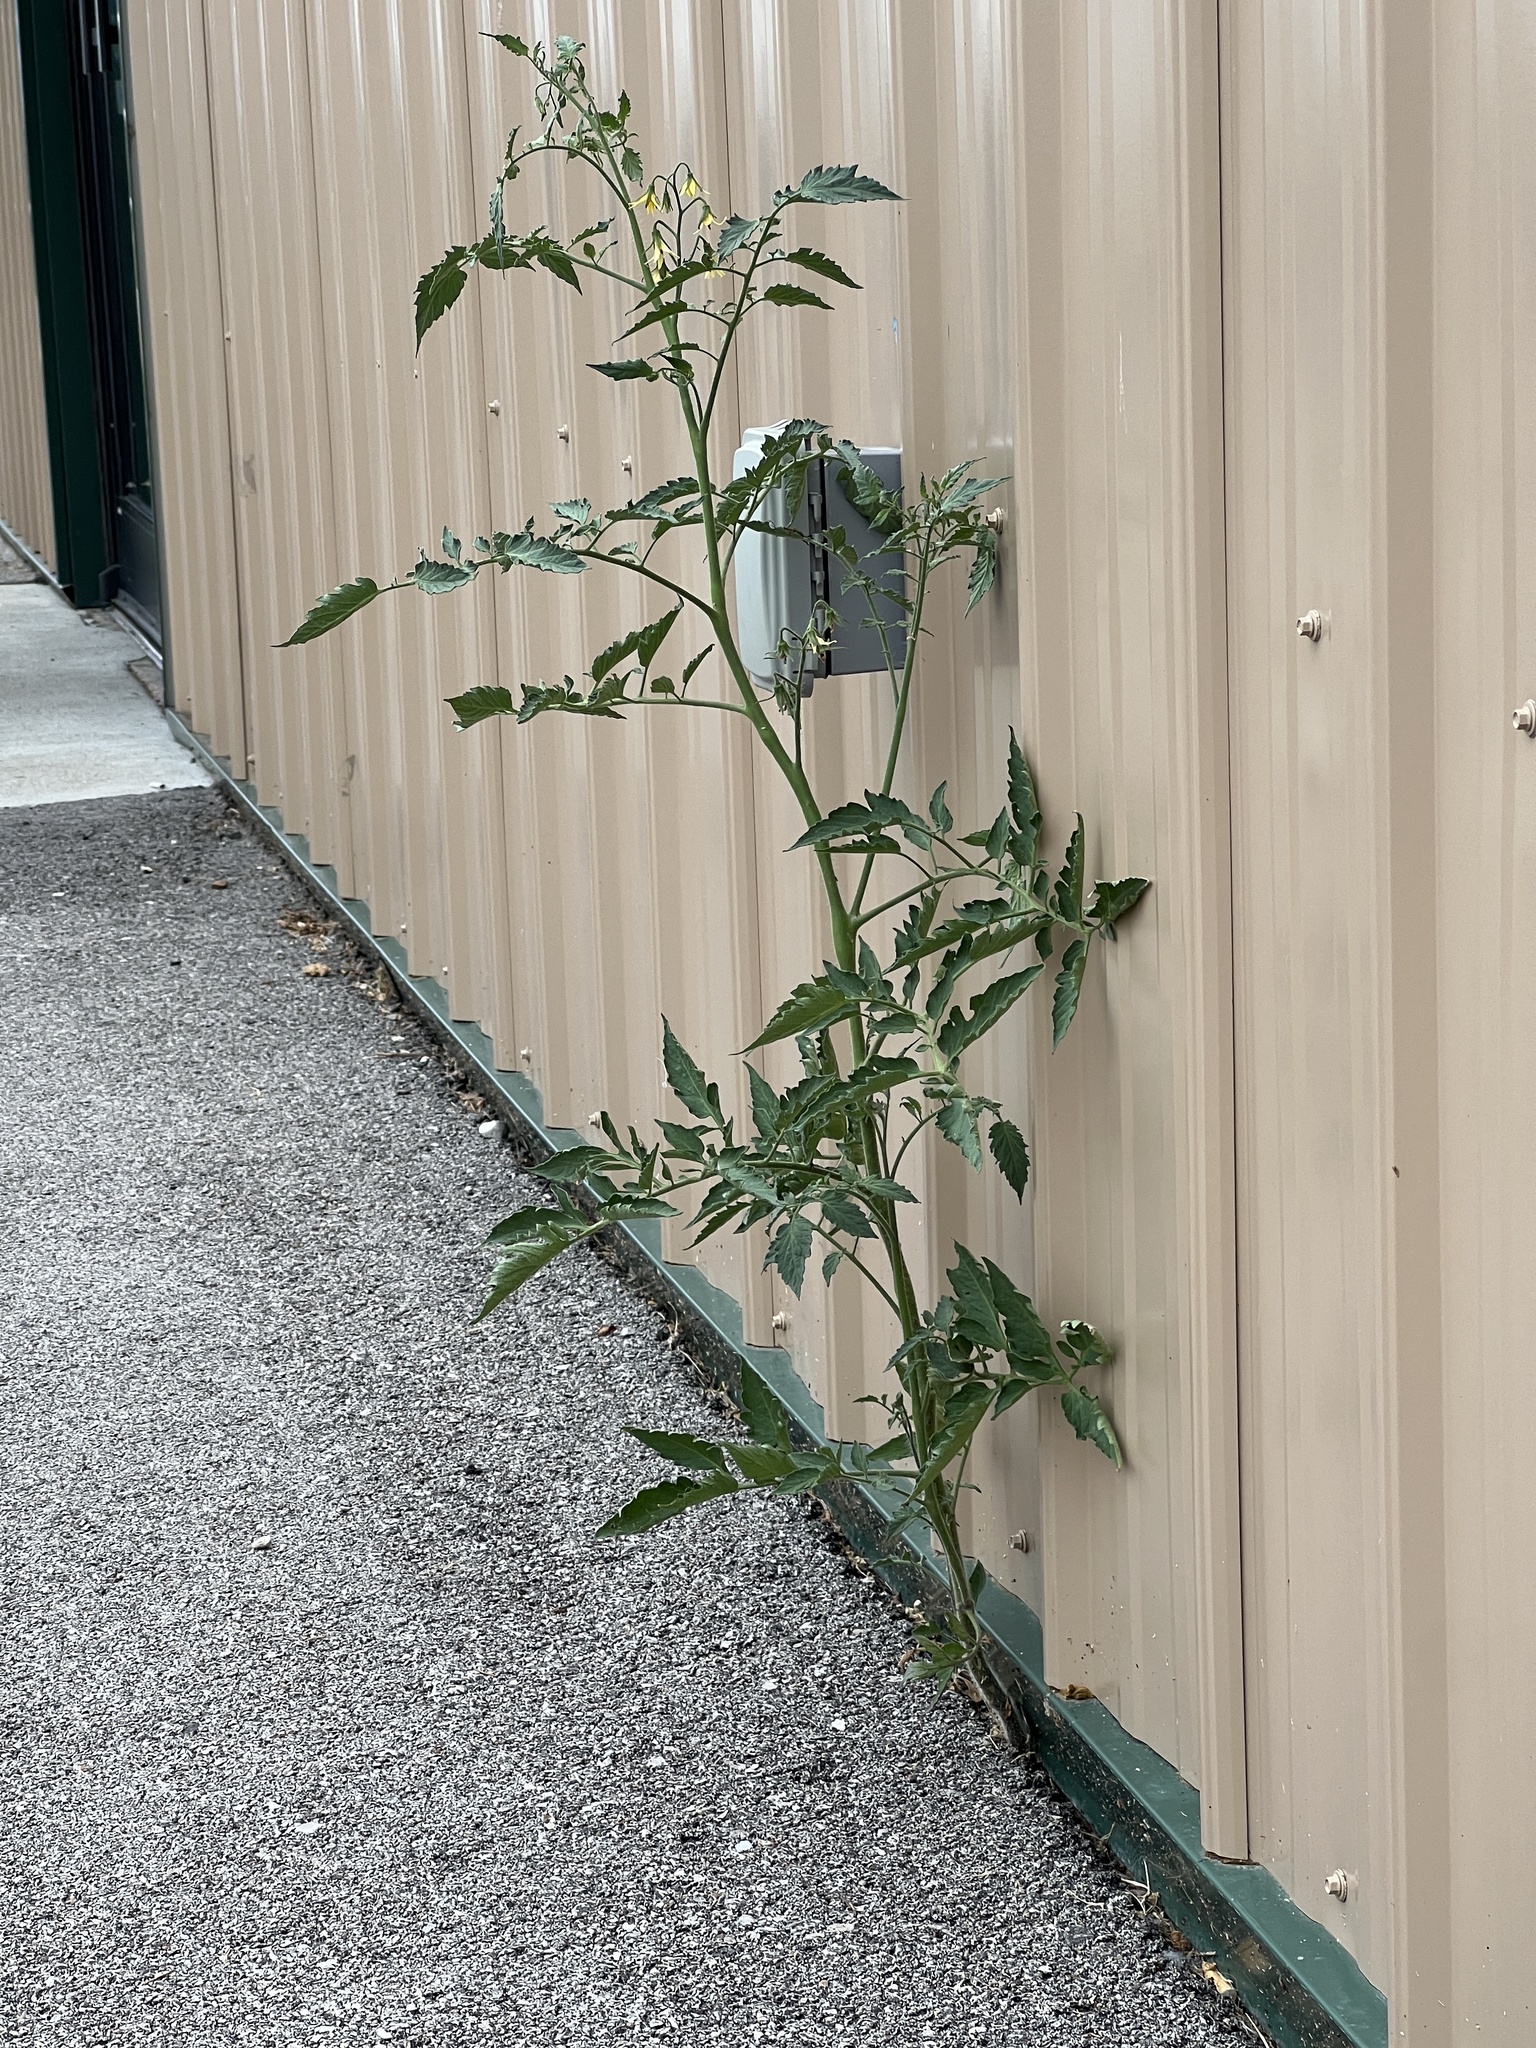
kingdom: Plantae
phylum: Tracheophyta
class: Magnoliopsida
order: Solanales
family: Solanaceae
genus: Solanum
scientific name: Solanum lycopersicum
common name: Garden tomato
